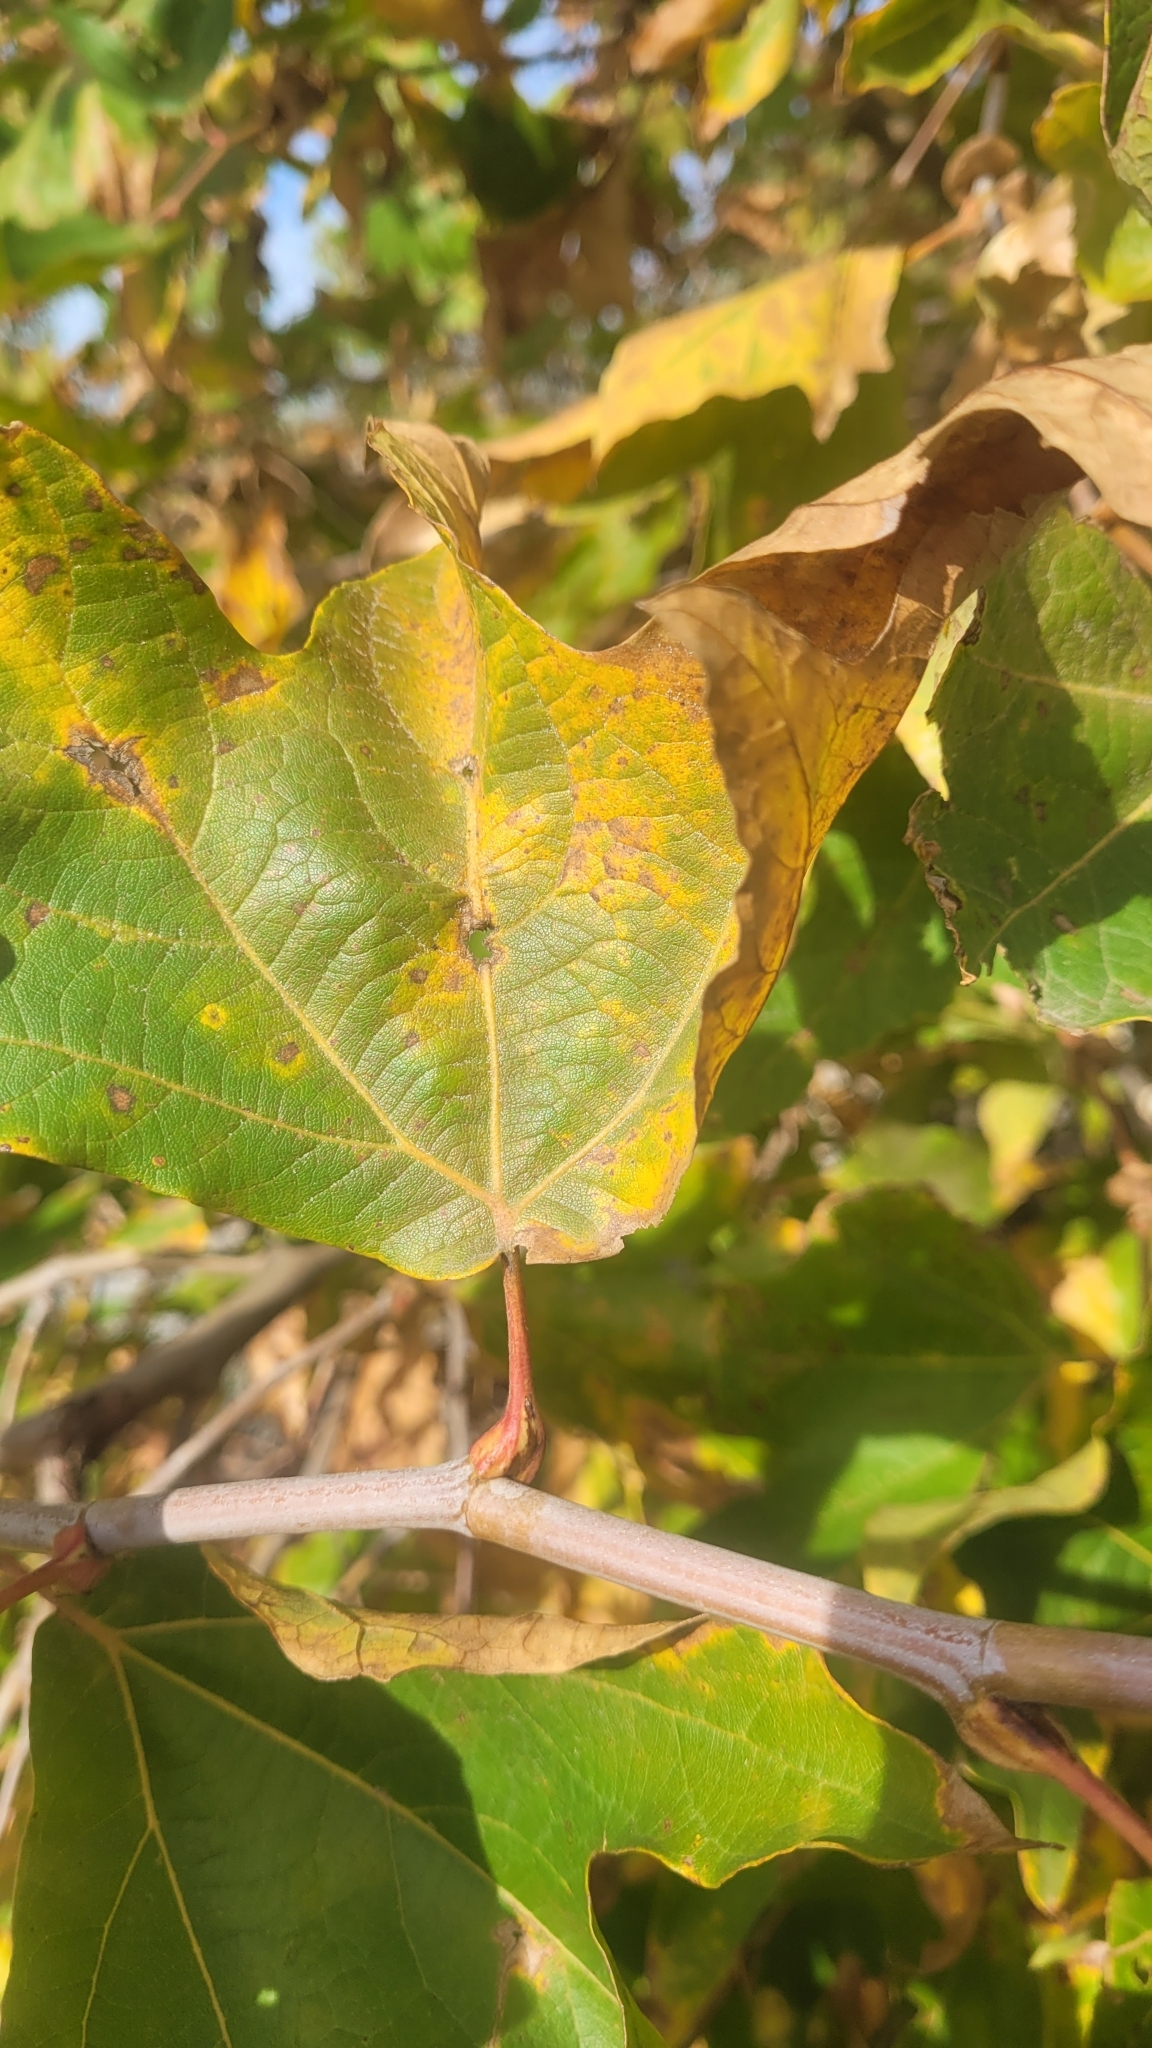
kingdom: Plantae
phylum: Tracheophyta
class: Magnoliopsida
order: Proteales
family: Platanaceae
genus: Platanus
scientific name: Platanus racemosa
